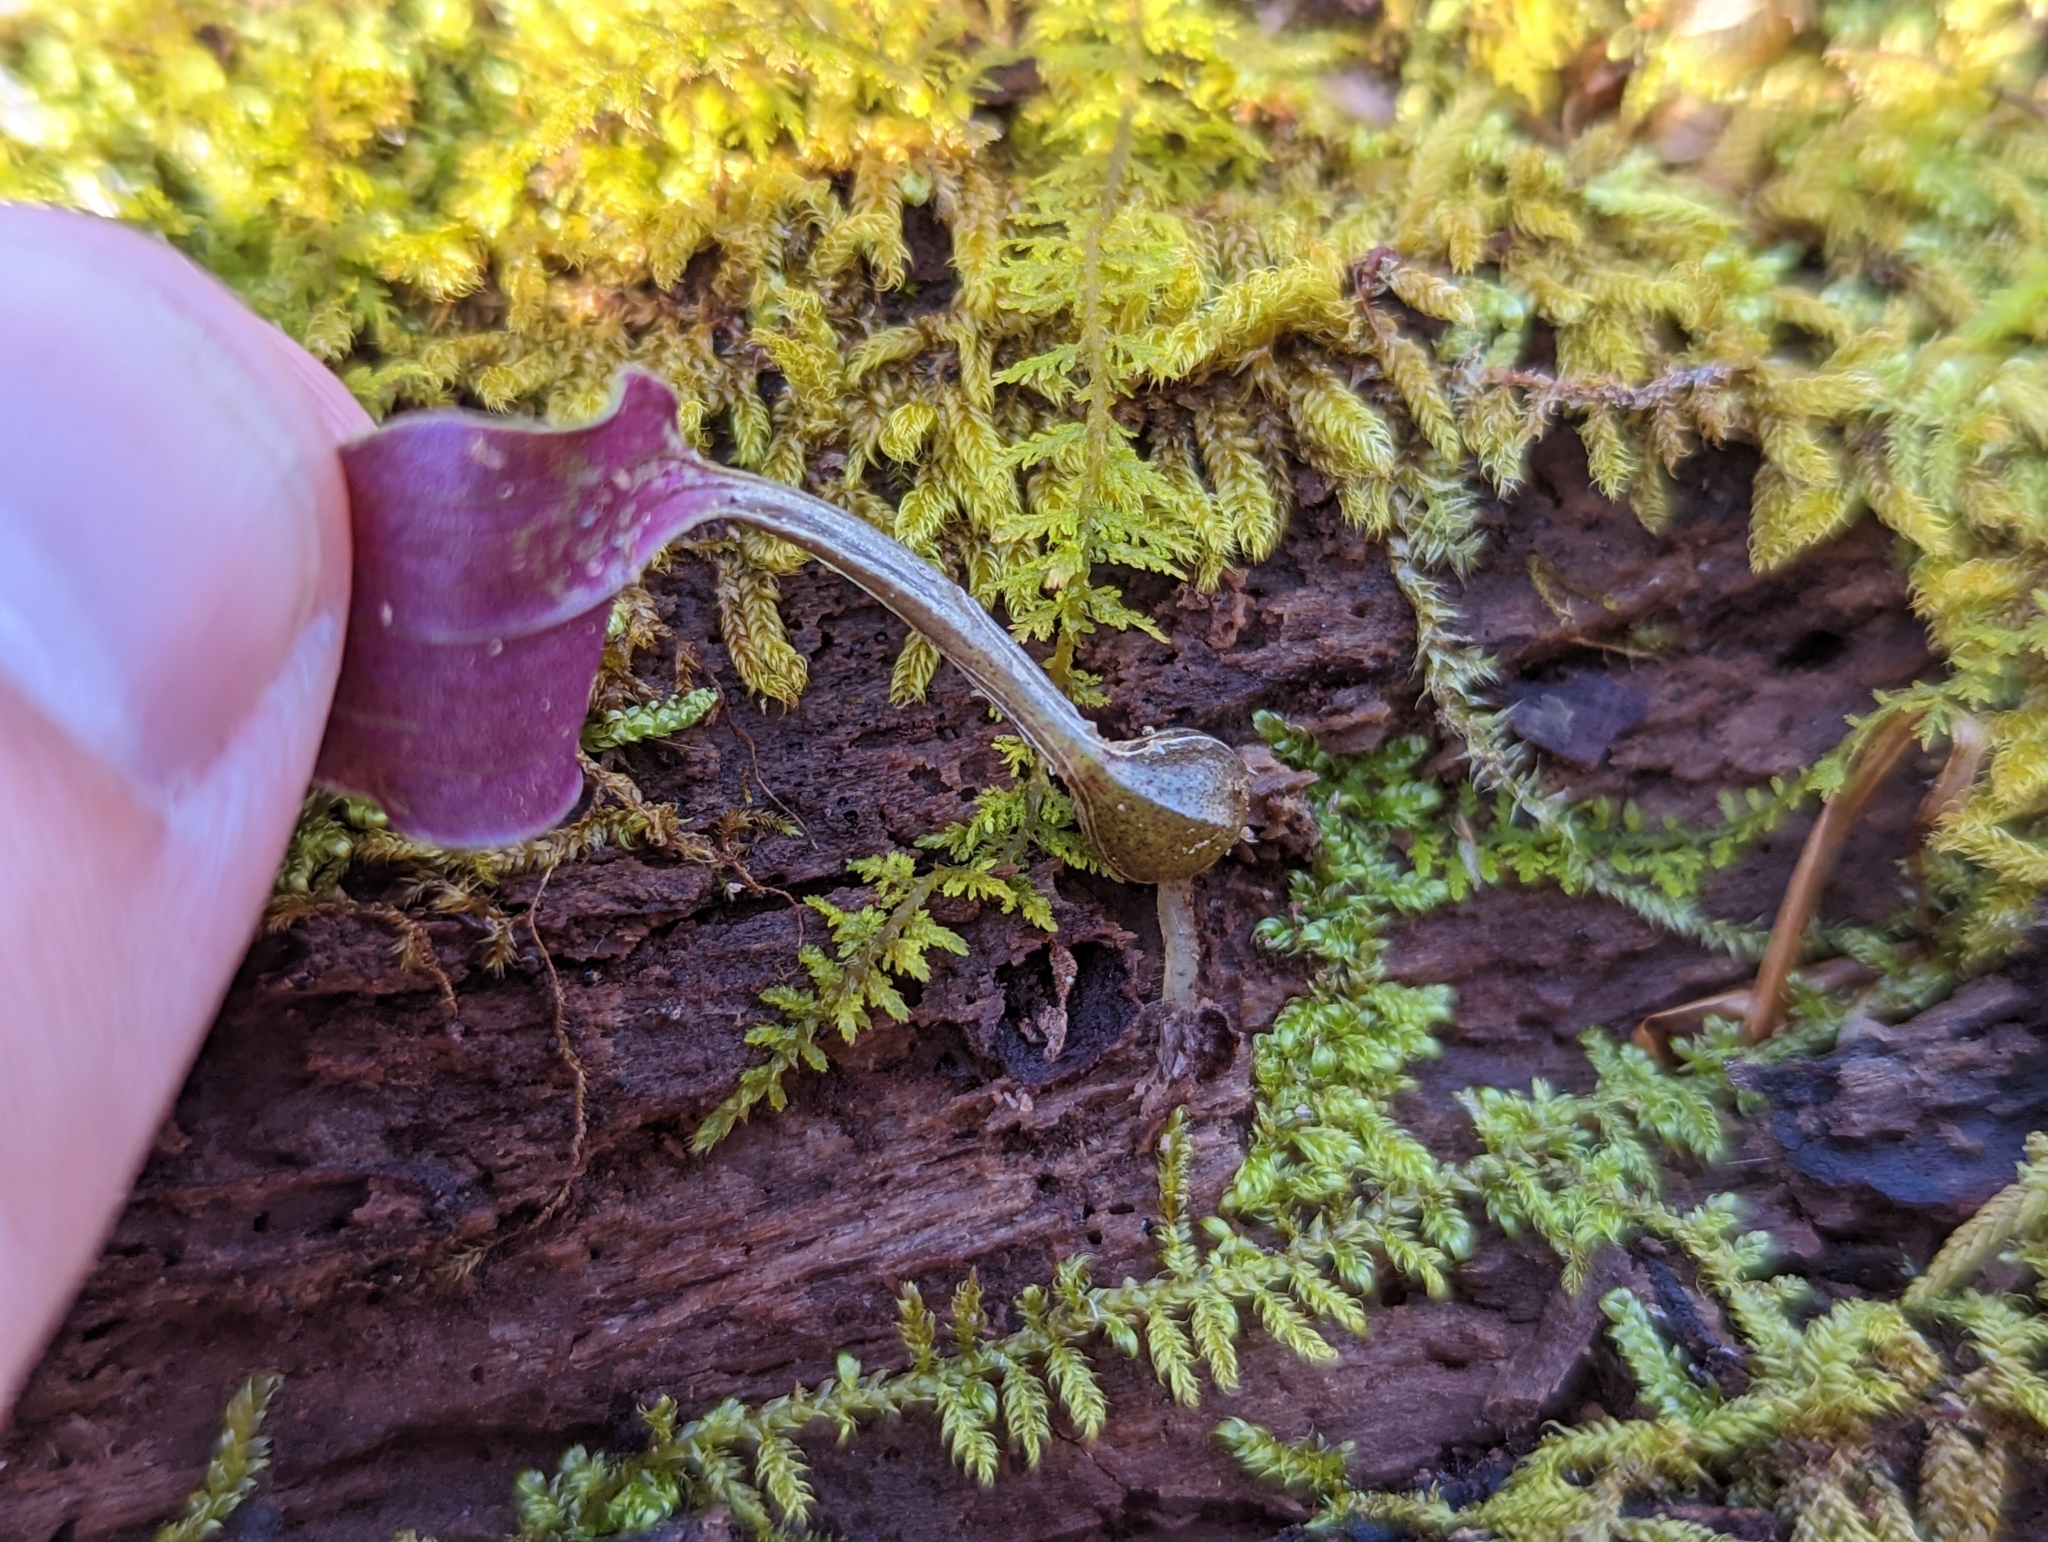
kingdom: Plantae
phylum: Tracheophyta
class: Liliopsida
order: Asparagales
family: Orchidaceae
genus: Tipularia
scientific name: Tipularia discolor
